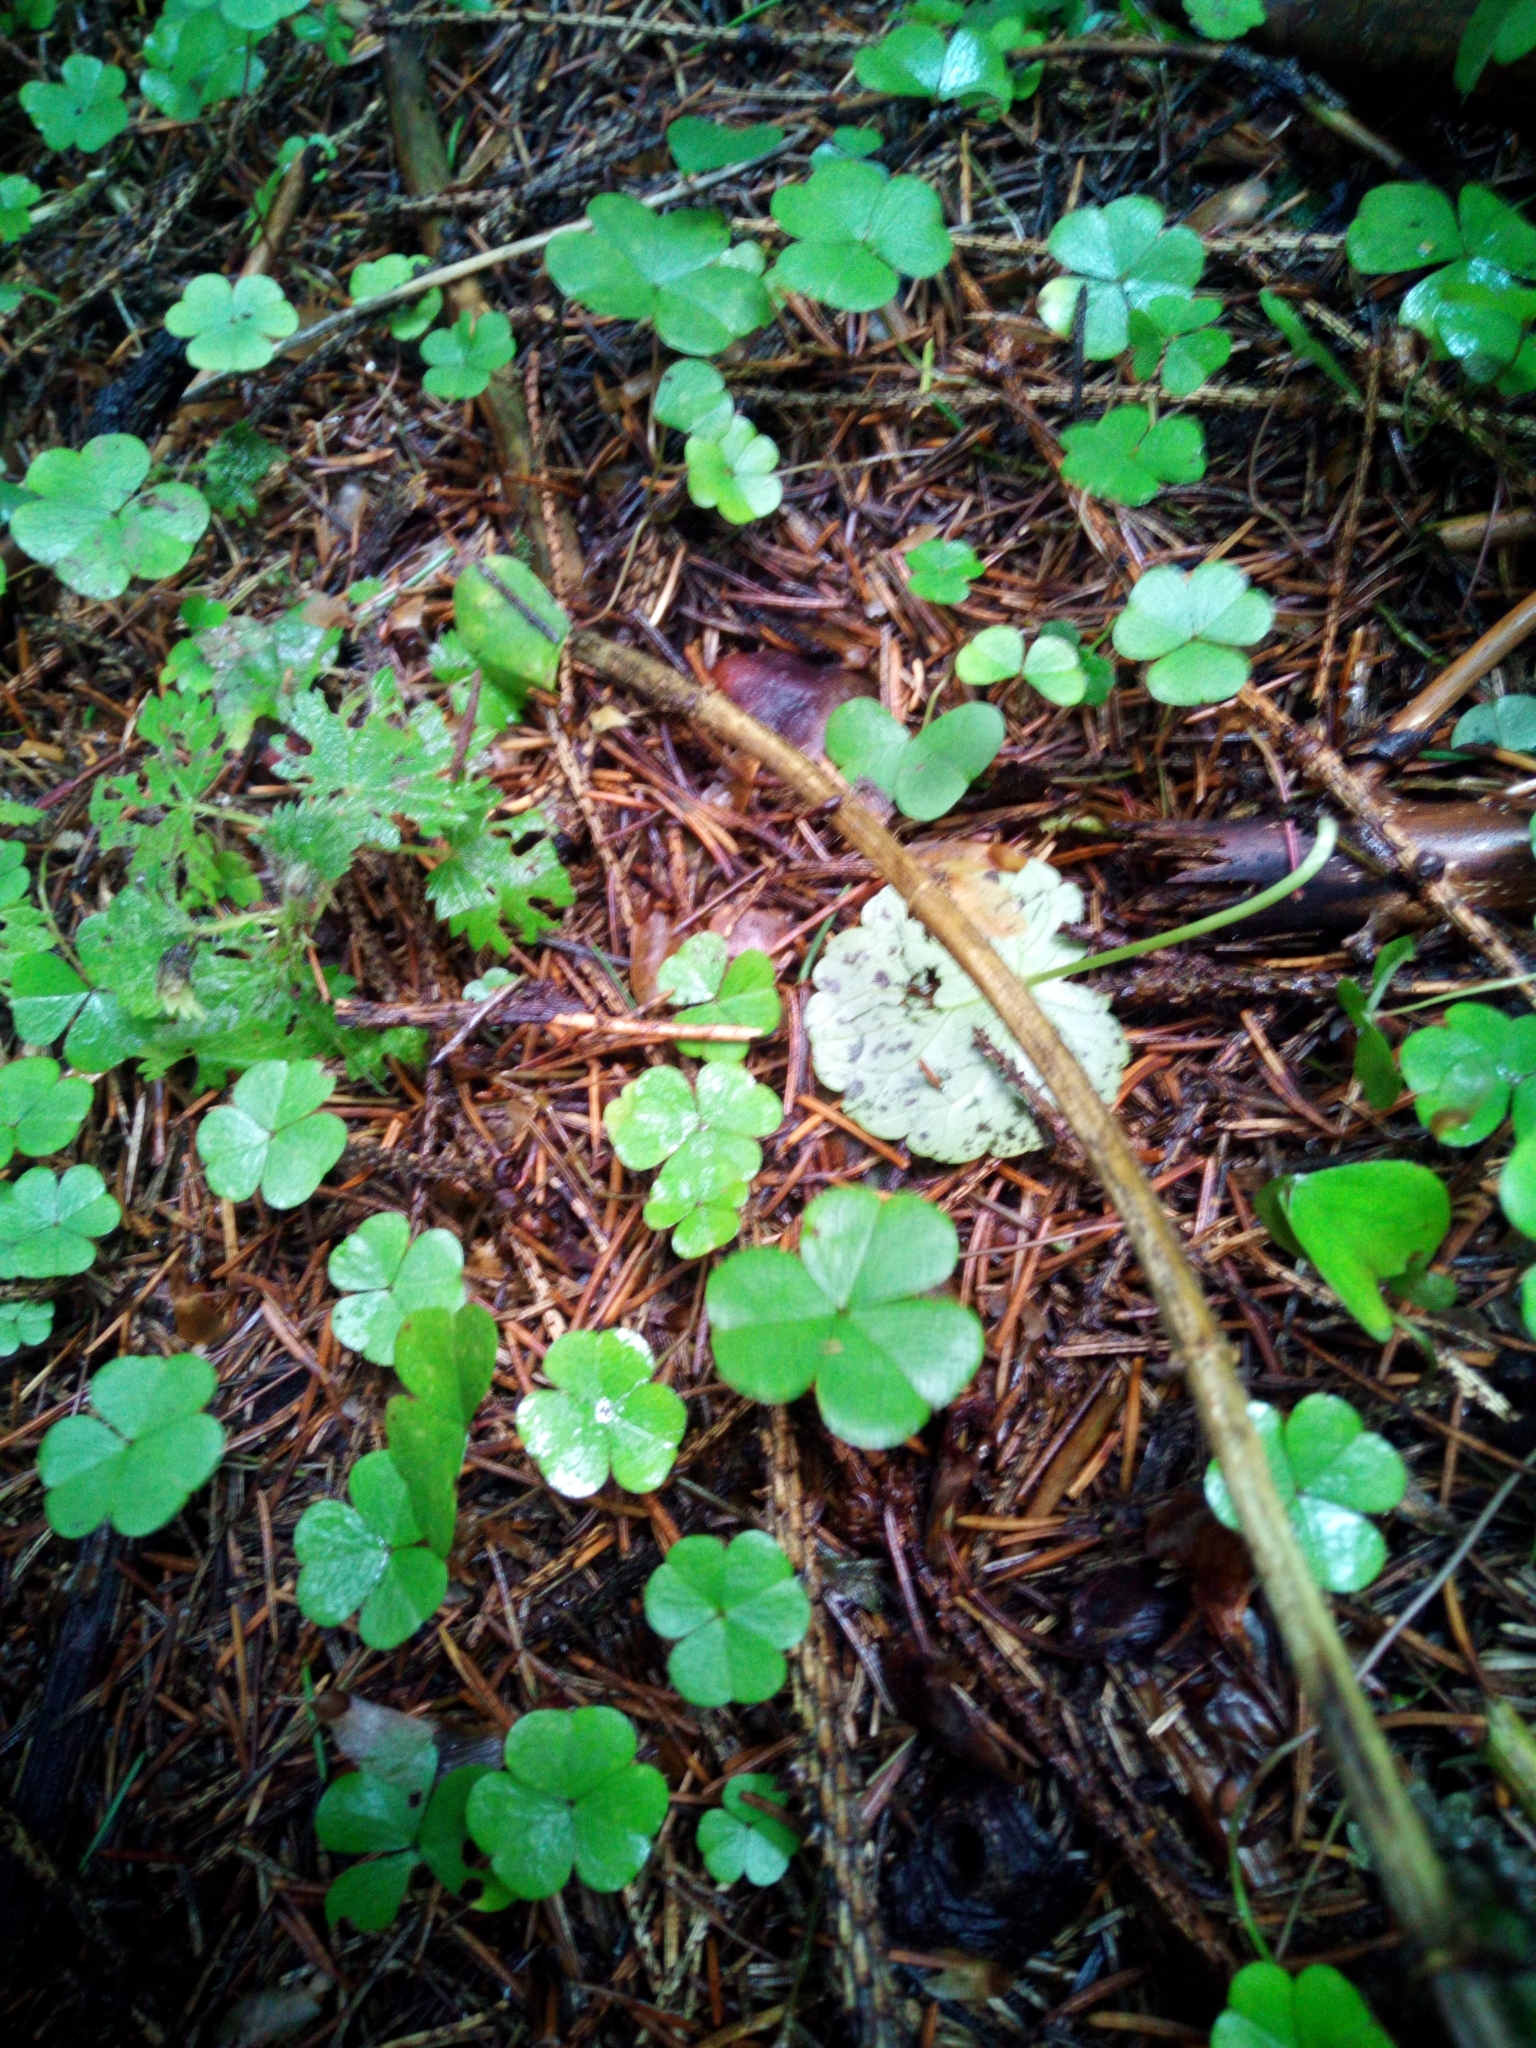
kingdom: Plantae
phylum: Tracheophyta
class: Magnoliopsida
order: Oxalidales
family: Oxalidaceae
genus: Oxalis
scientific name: Oxalis acetosella
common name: Wood-sorrel
